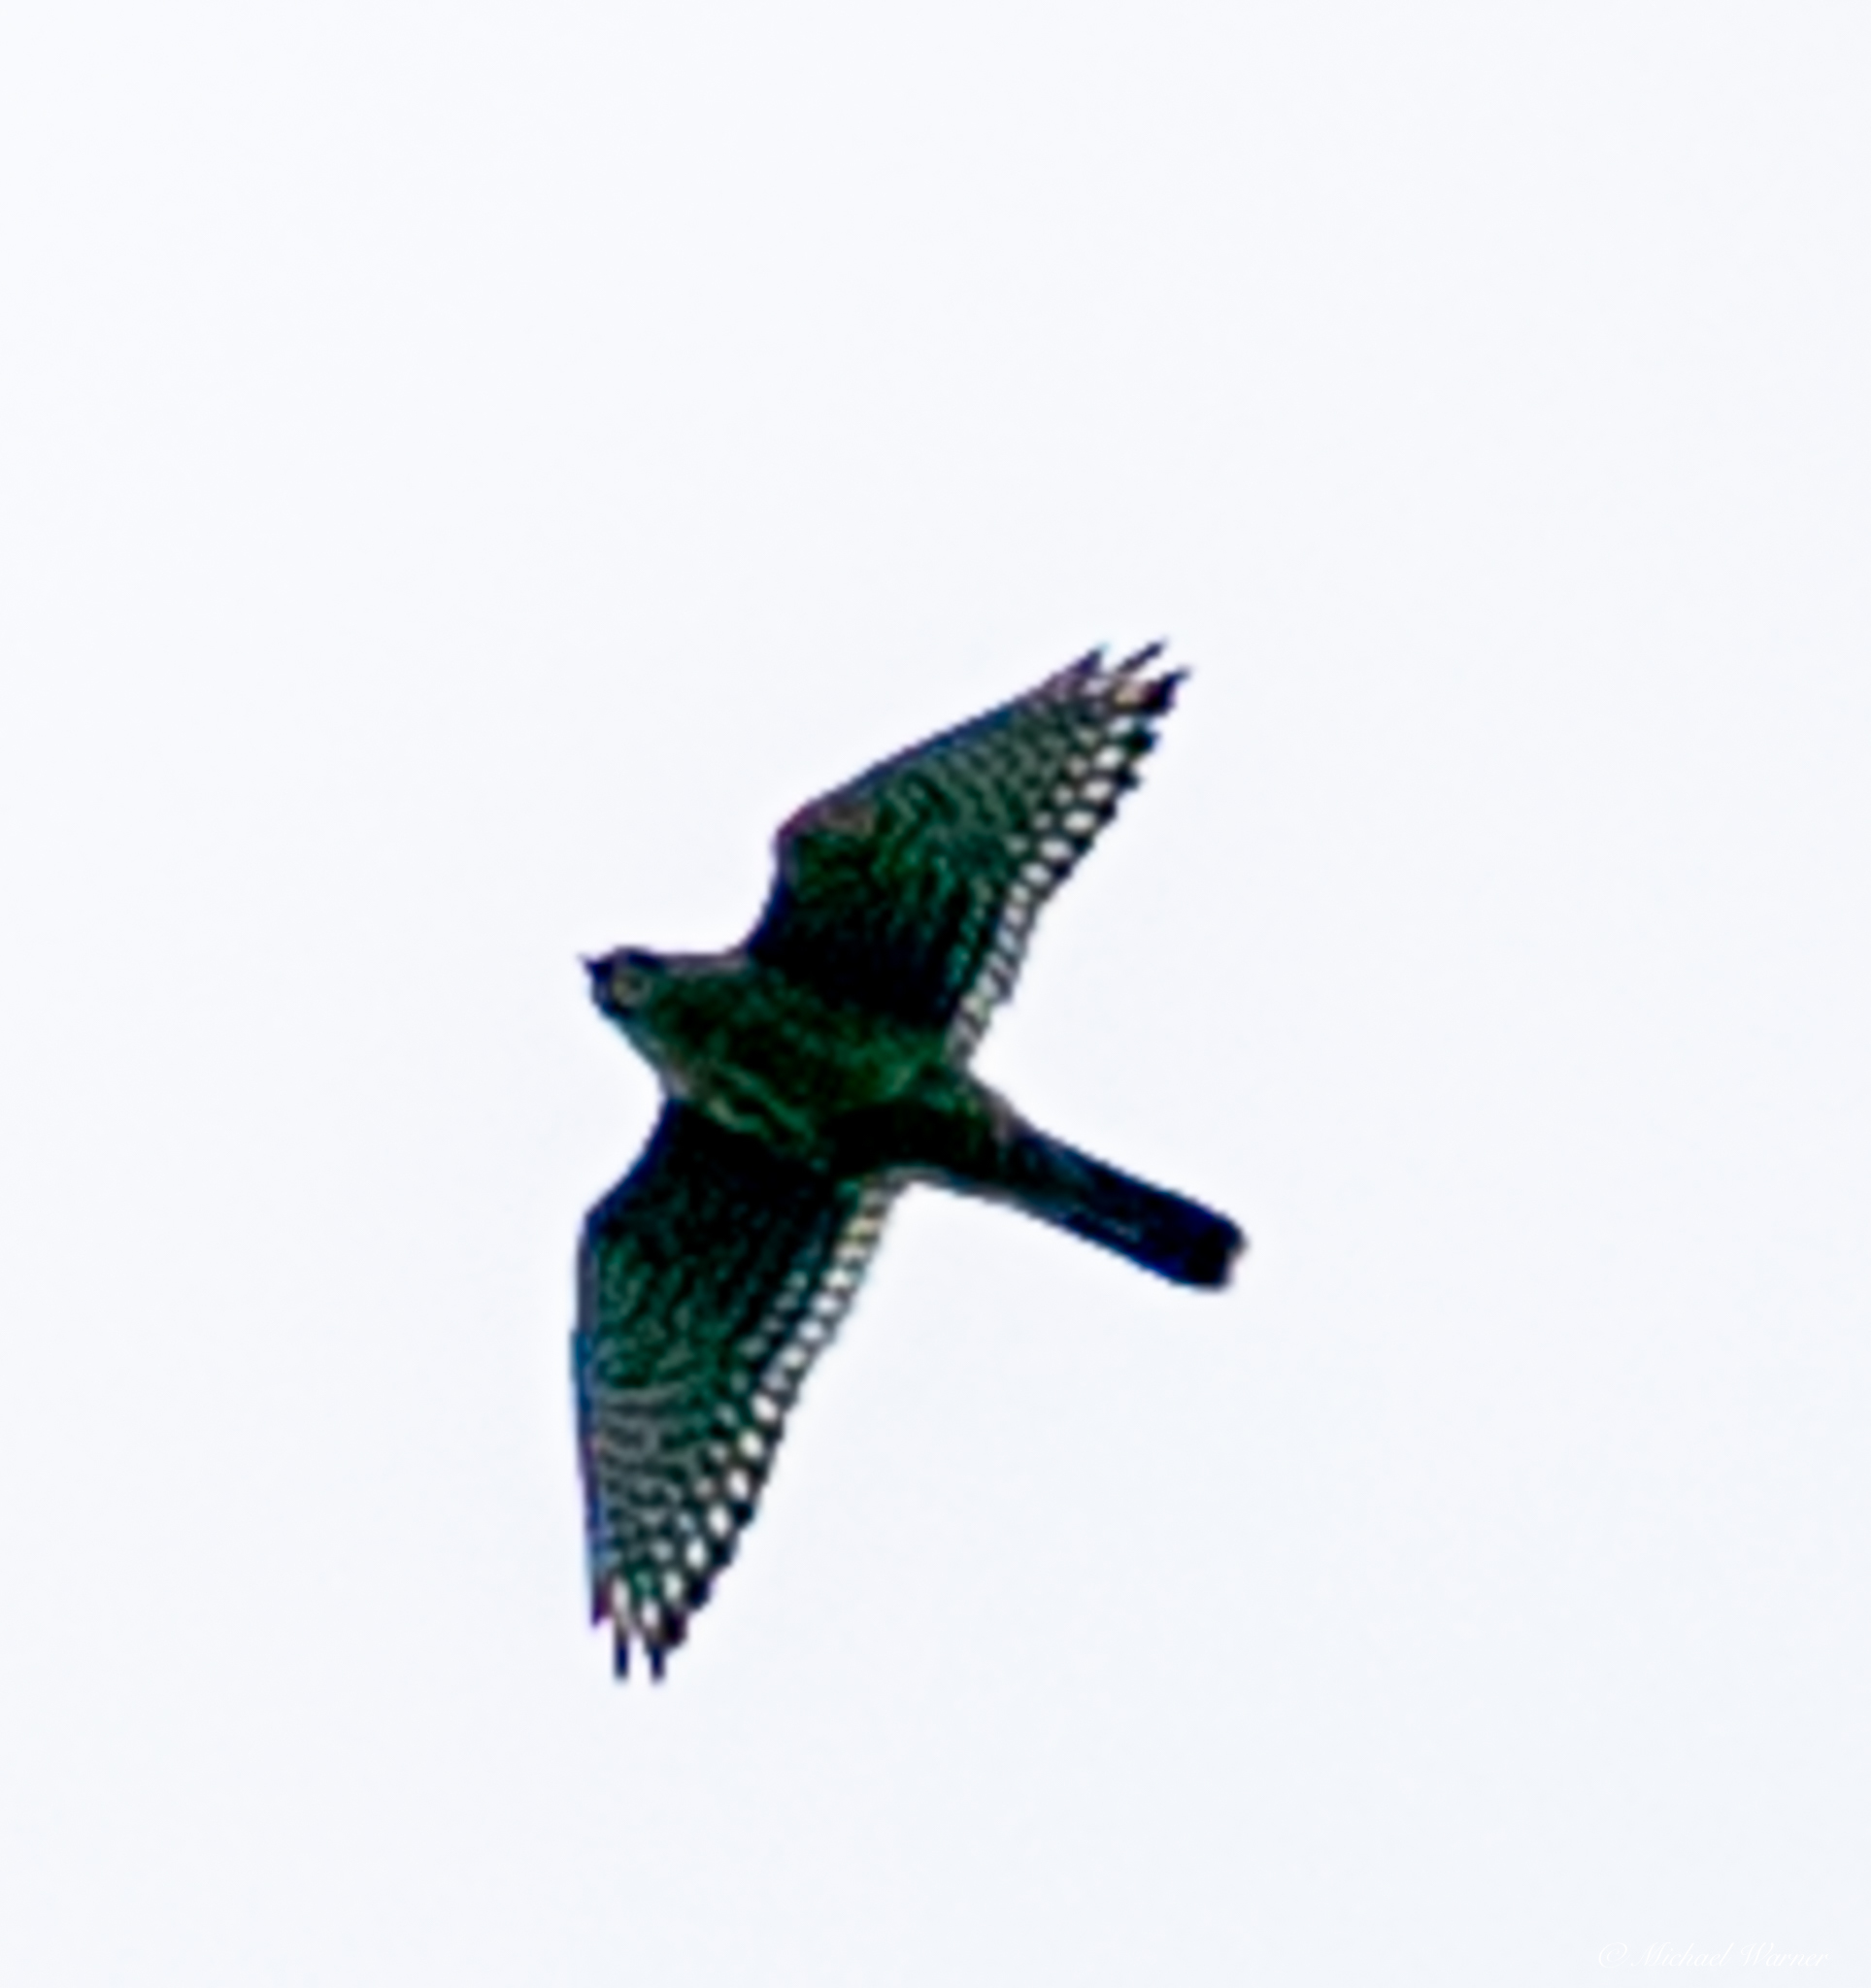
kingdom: Animalia
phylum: Chordata
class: Aves
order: Falconiformes
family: Falconidae
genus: Falco
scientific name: Falco sparverius
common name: American kestrel
